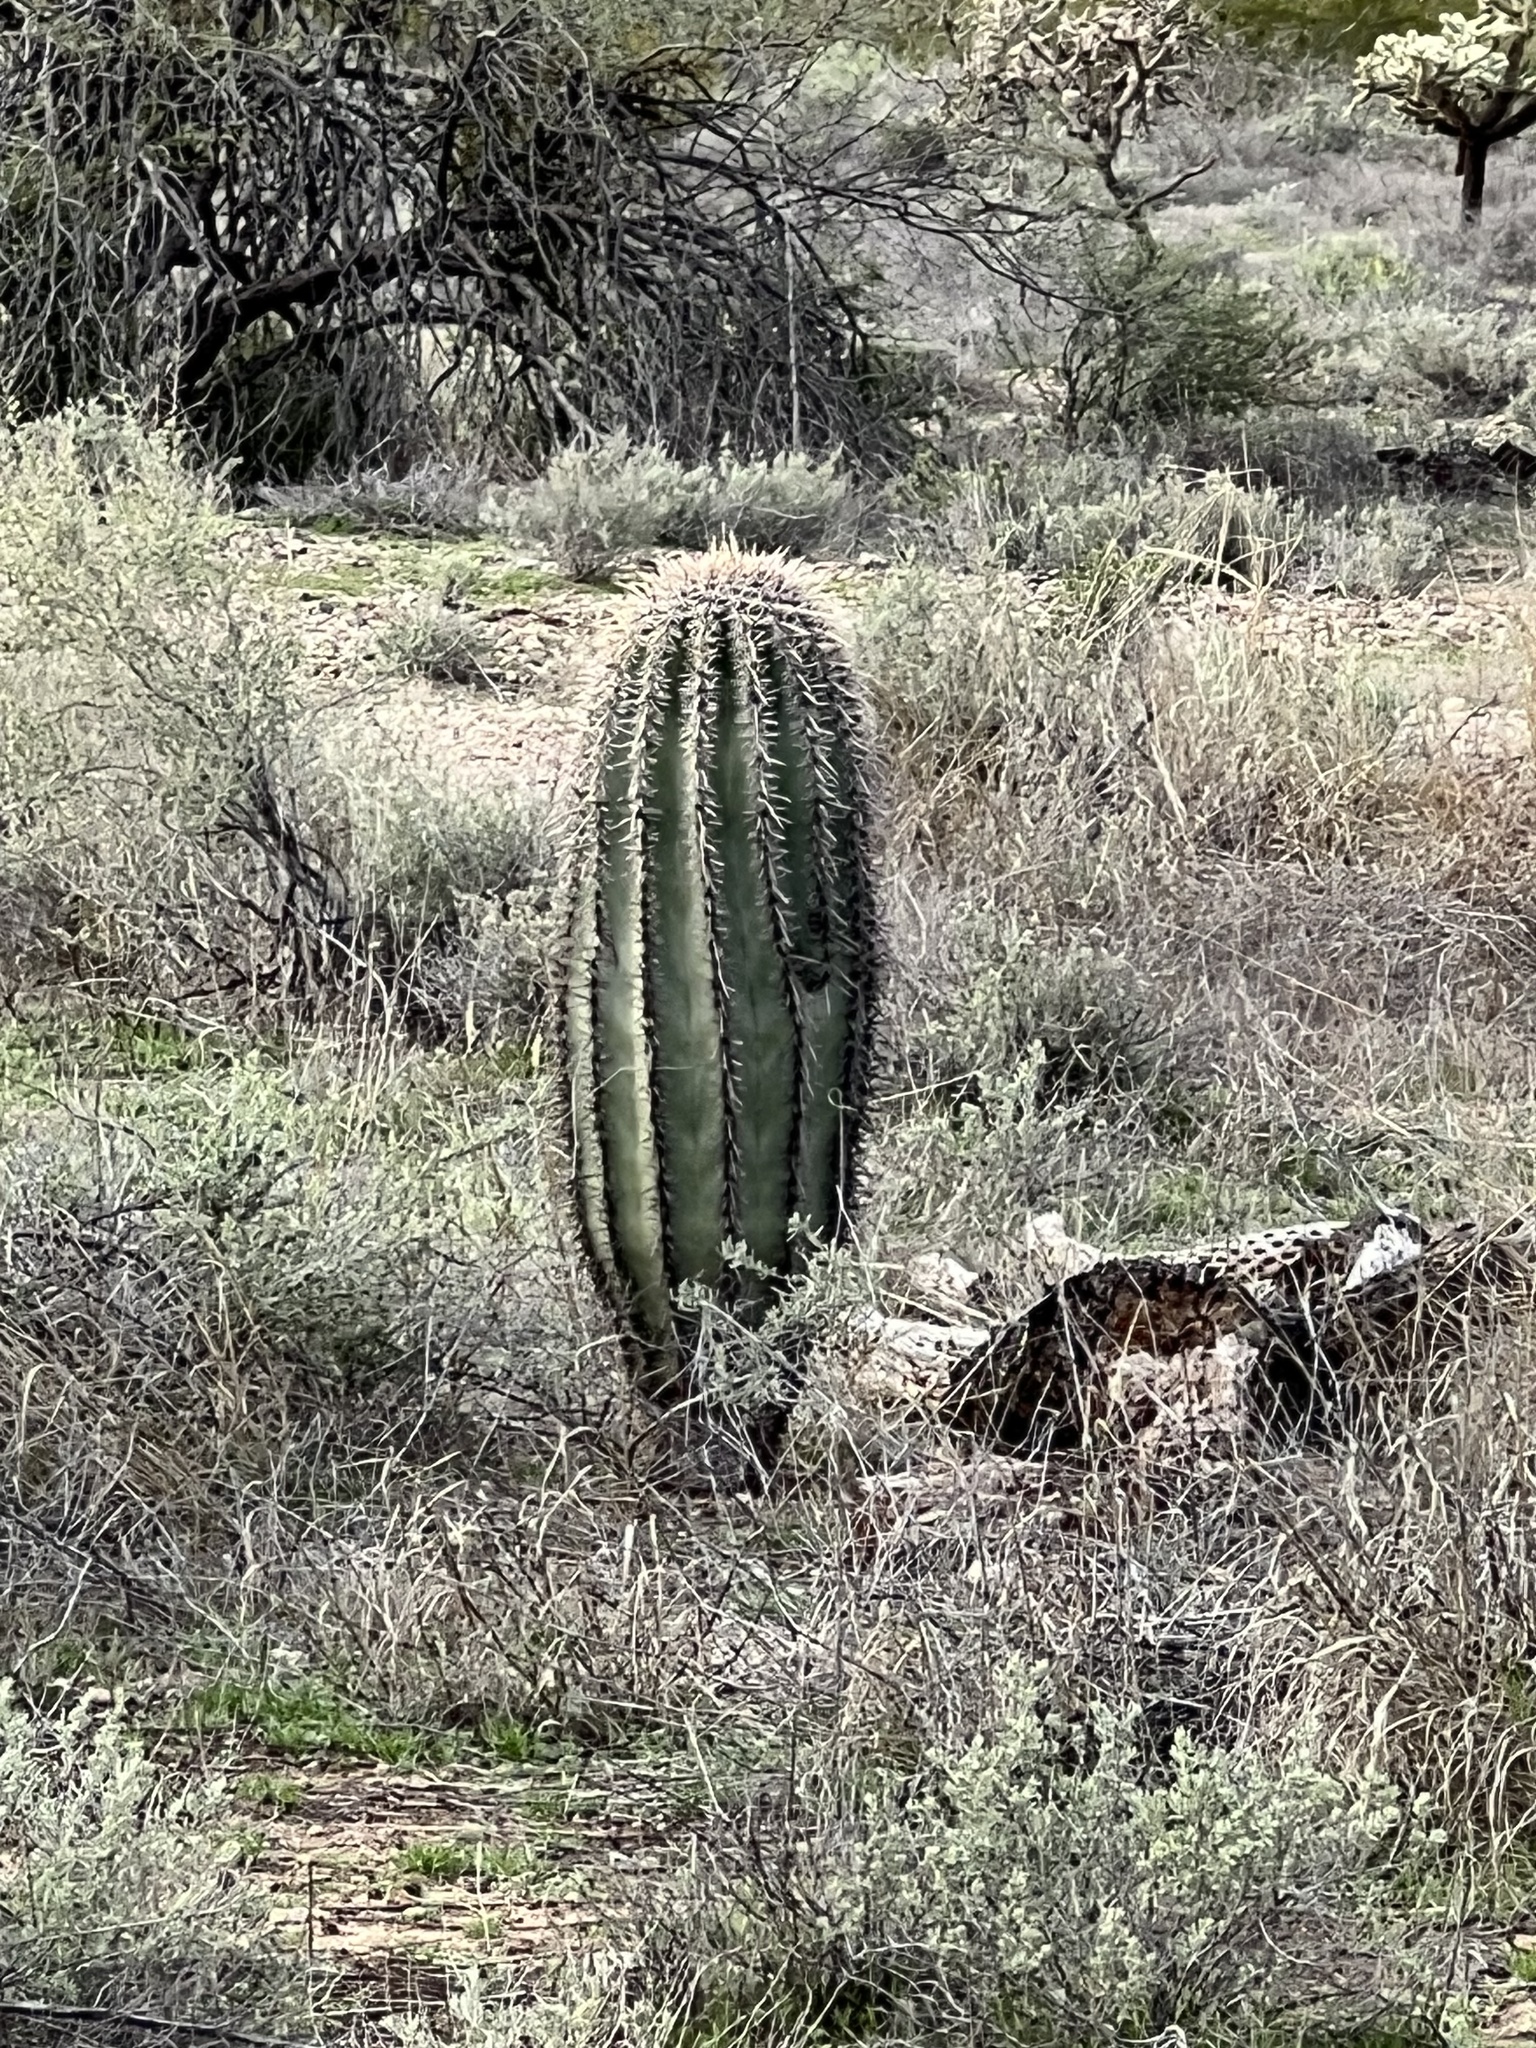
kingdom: Plantae
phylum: Tracheophyta
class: Magnoliopsida
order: Caryophyllales
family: Cactaceae
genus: Carnegiea
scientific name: Carnegiea gigantea
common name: Saguaro
